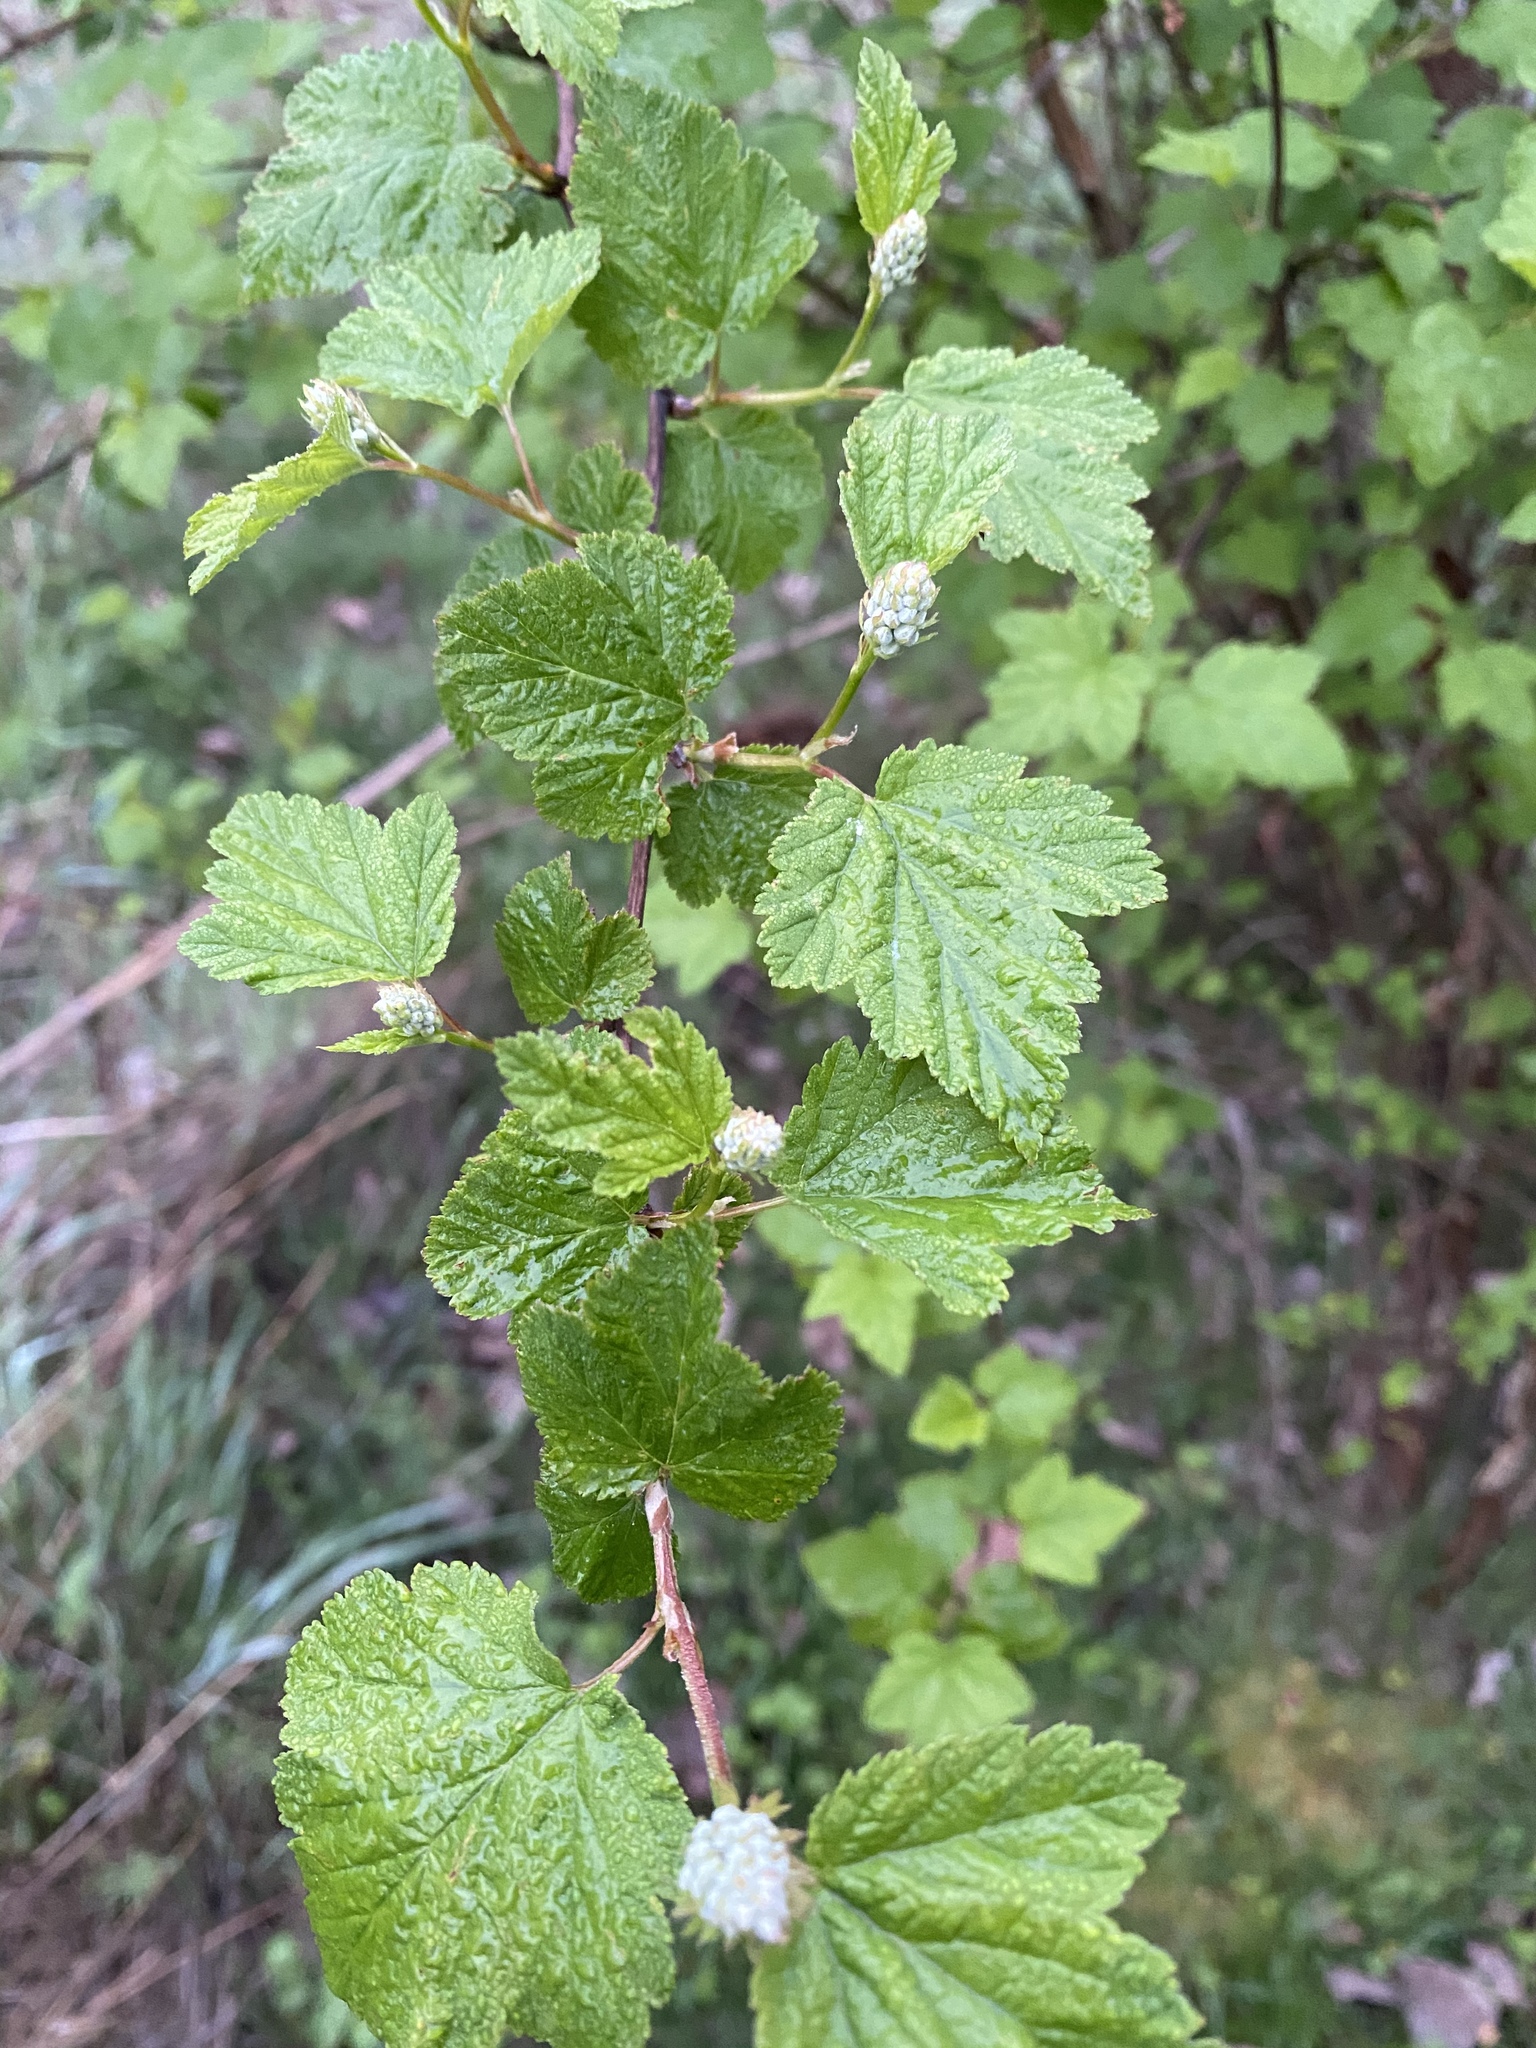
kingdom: Plantae
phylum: Tracheophyta
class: Magnoliopsida
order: Rosales
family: Rosaceae
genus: Physocarpus
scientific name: Physocarpus capitatus
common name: Pacific ninebark
